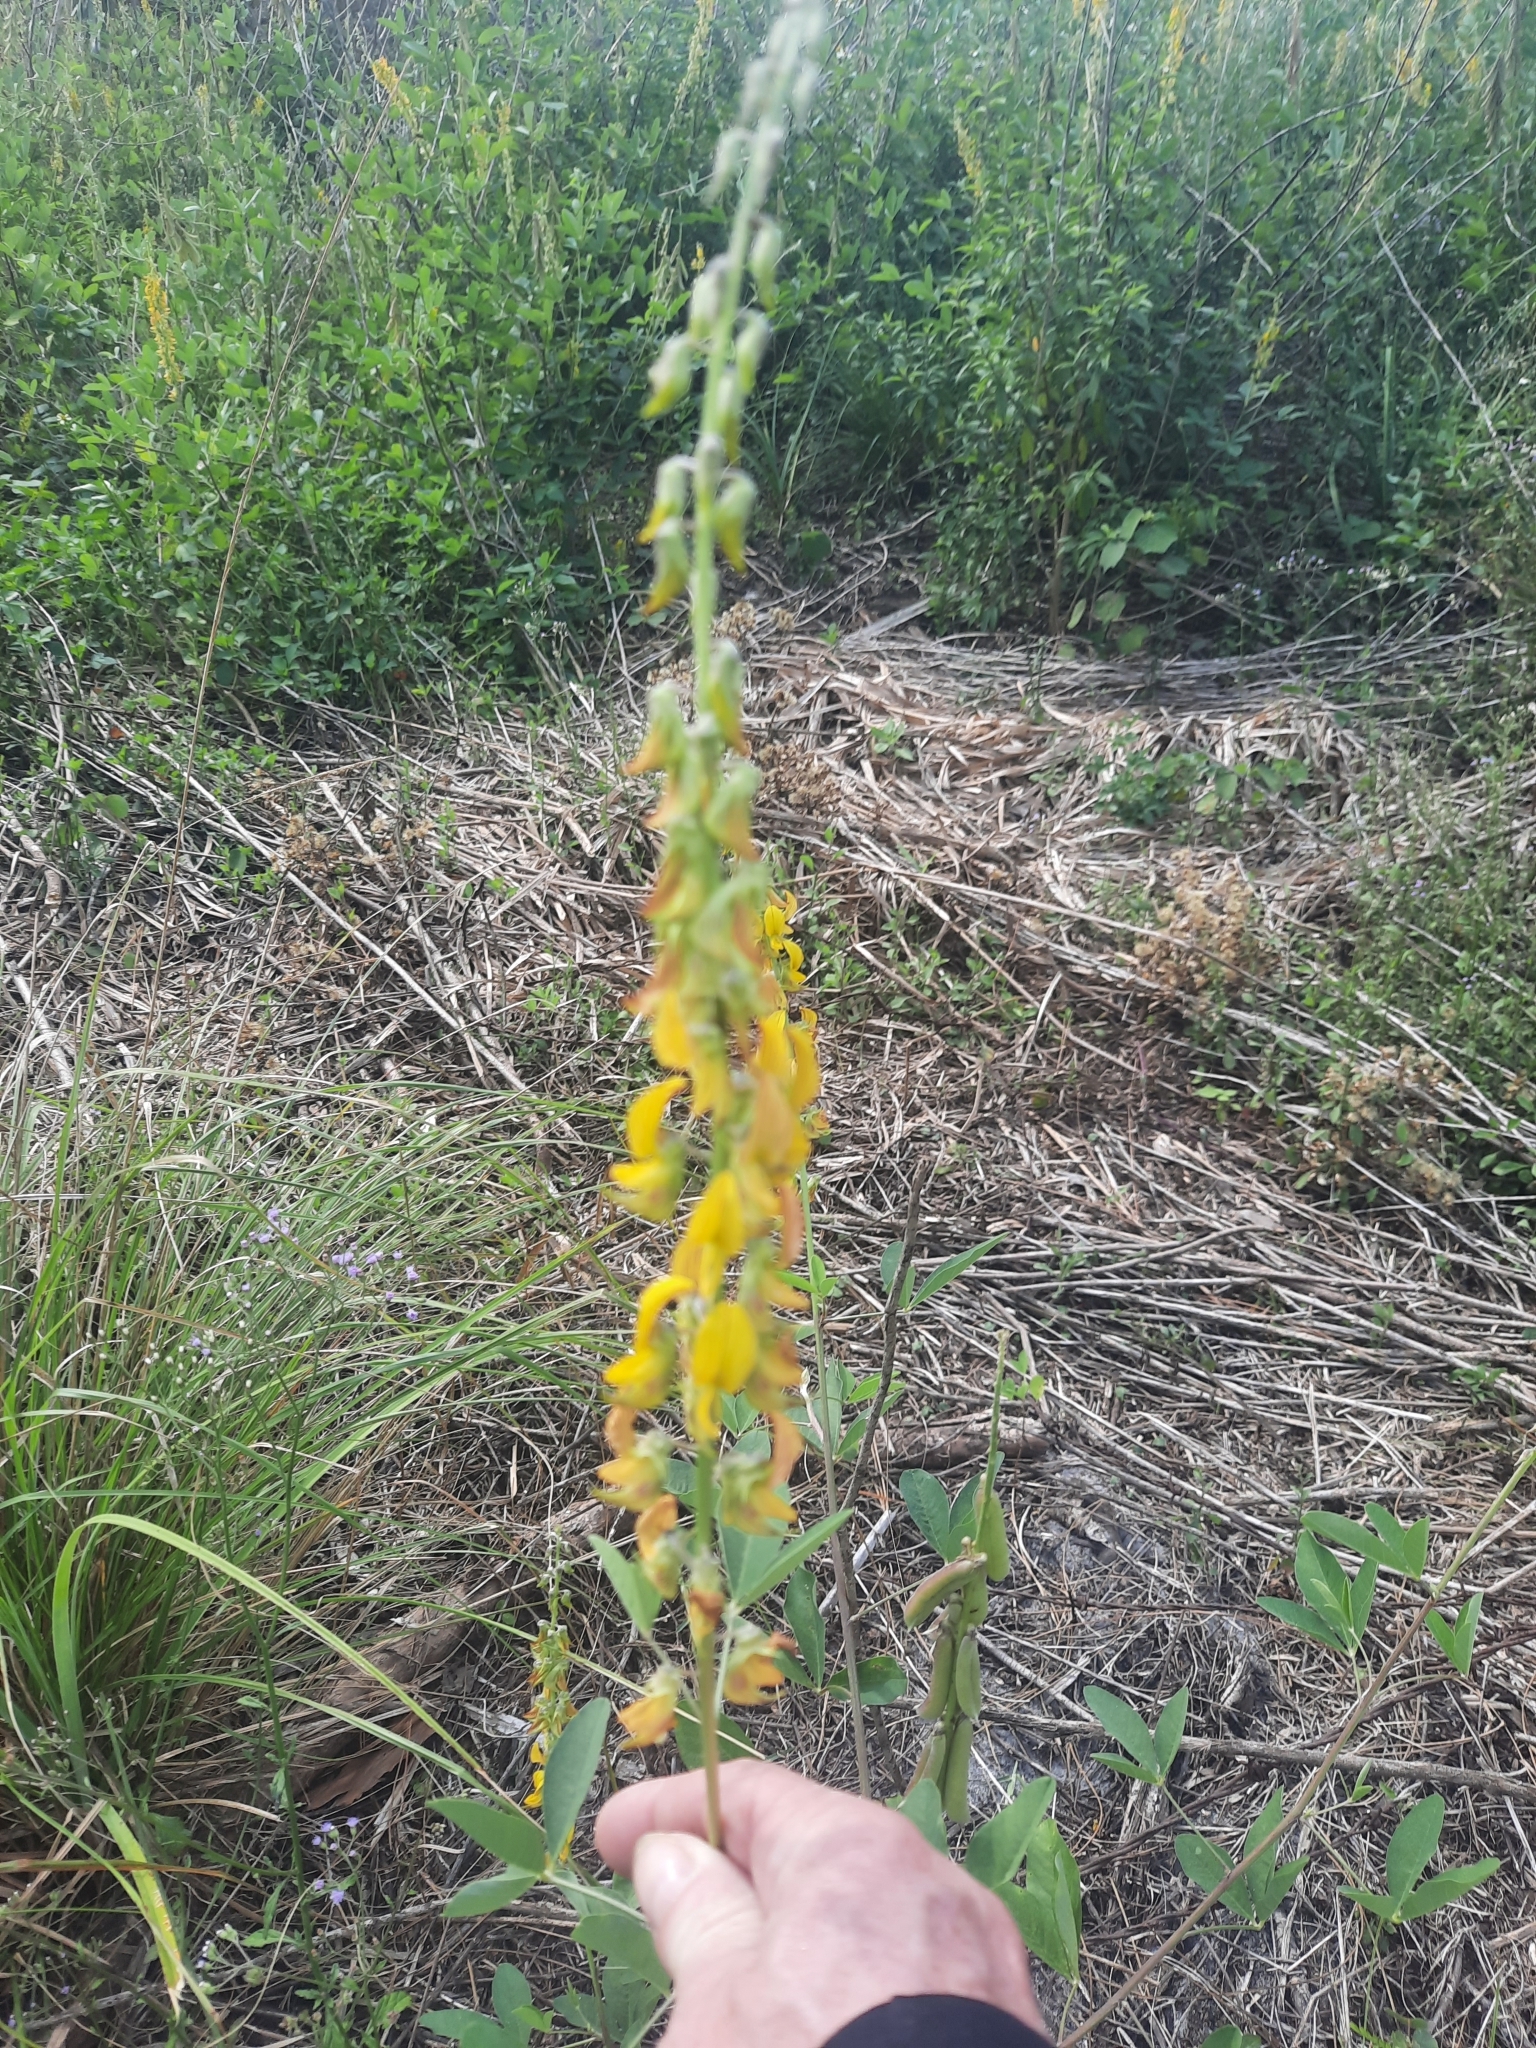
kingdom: Plantae
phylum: Tracheophyta
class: Magnoliopsida
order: Fabales
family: Fabaceae
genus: Crotalaria
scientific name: Crotalaria pallida
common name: Smooth rattlebox
